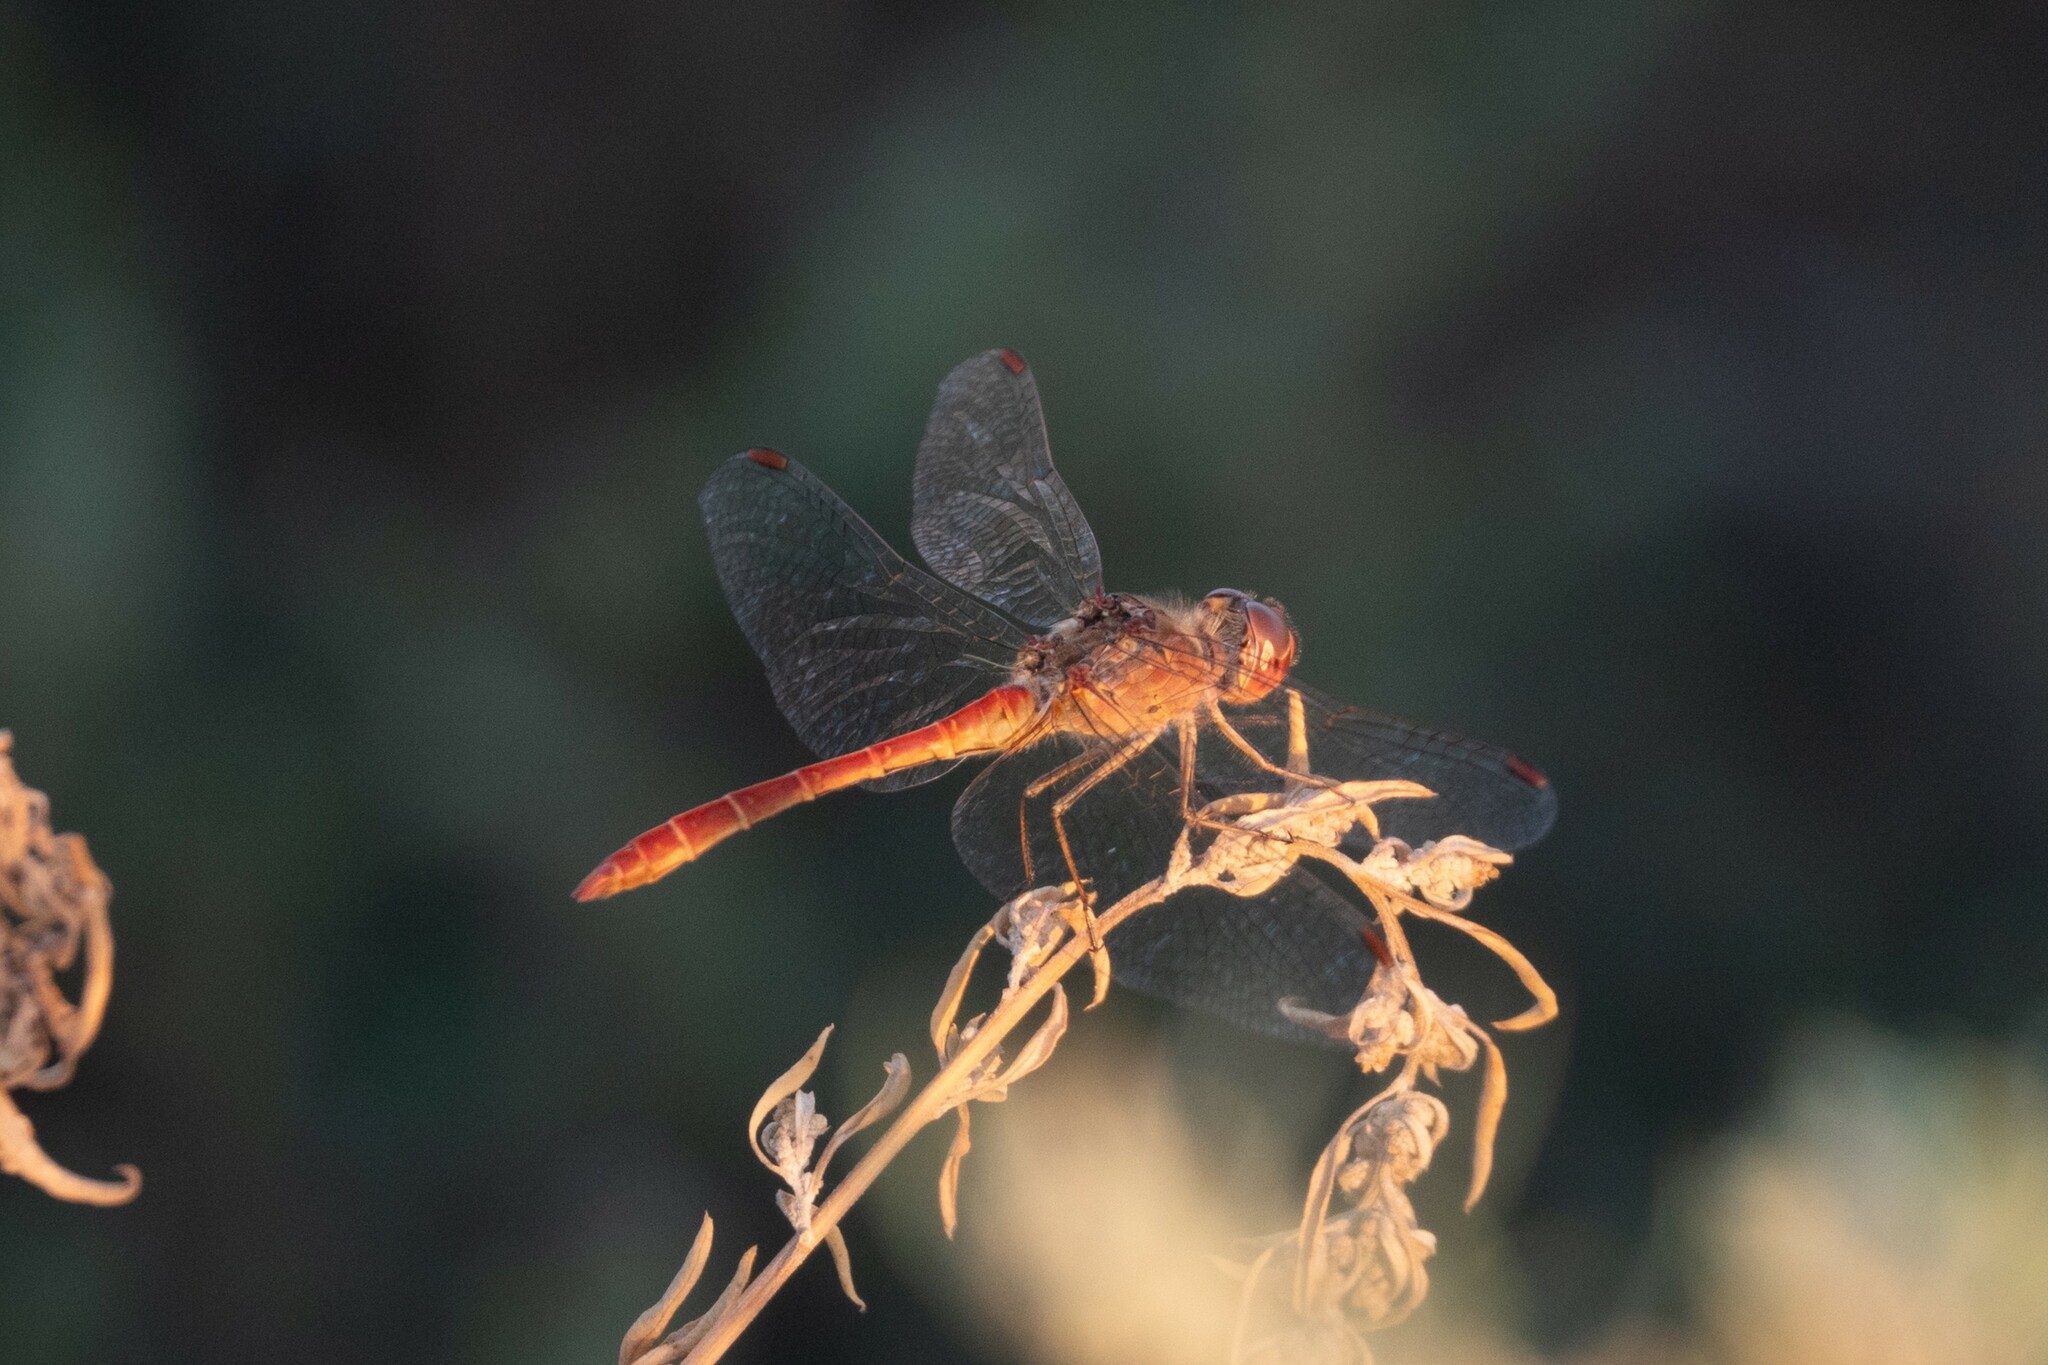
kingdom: Animalia
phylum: Arthropoda
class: Insecta
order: Odonata
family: Libellulidae
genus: Sympetrum
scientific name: Sympetrum meridionale
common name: Southern darter
